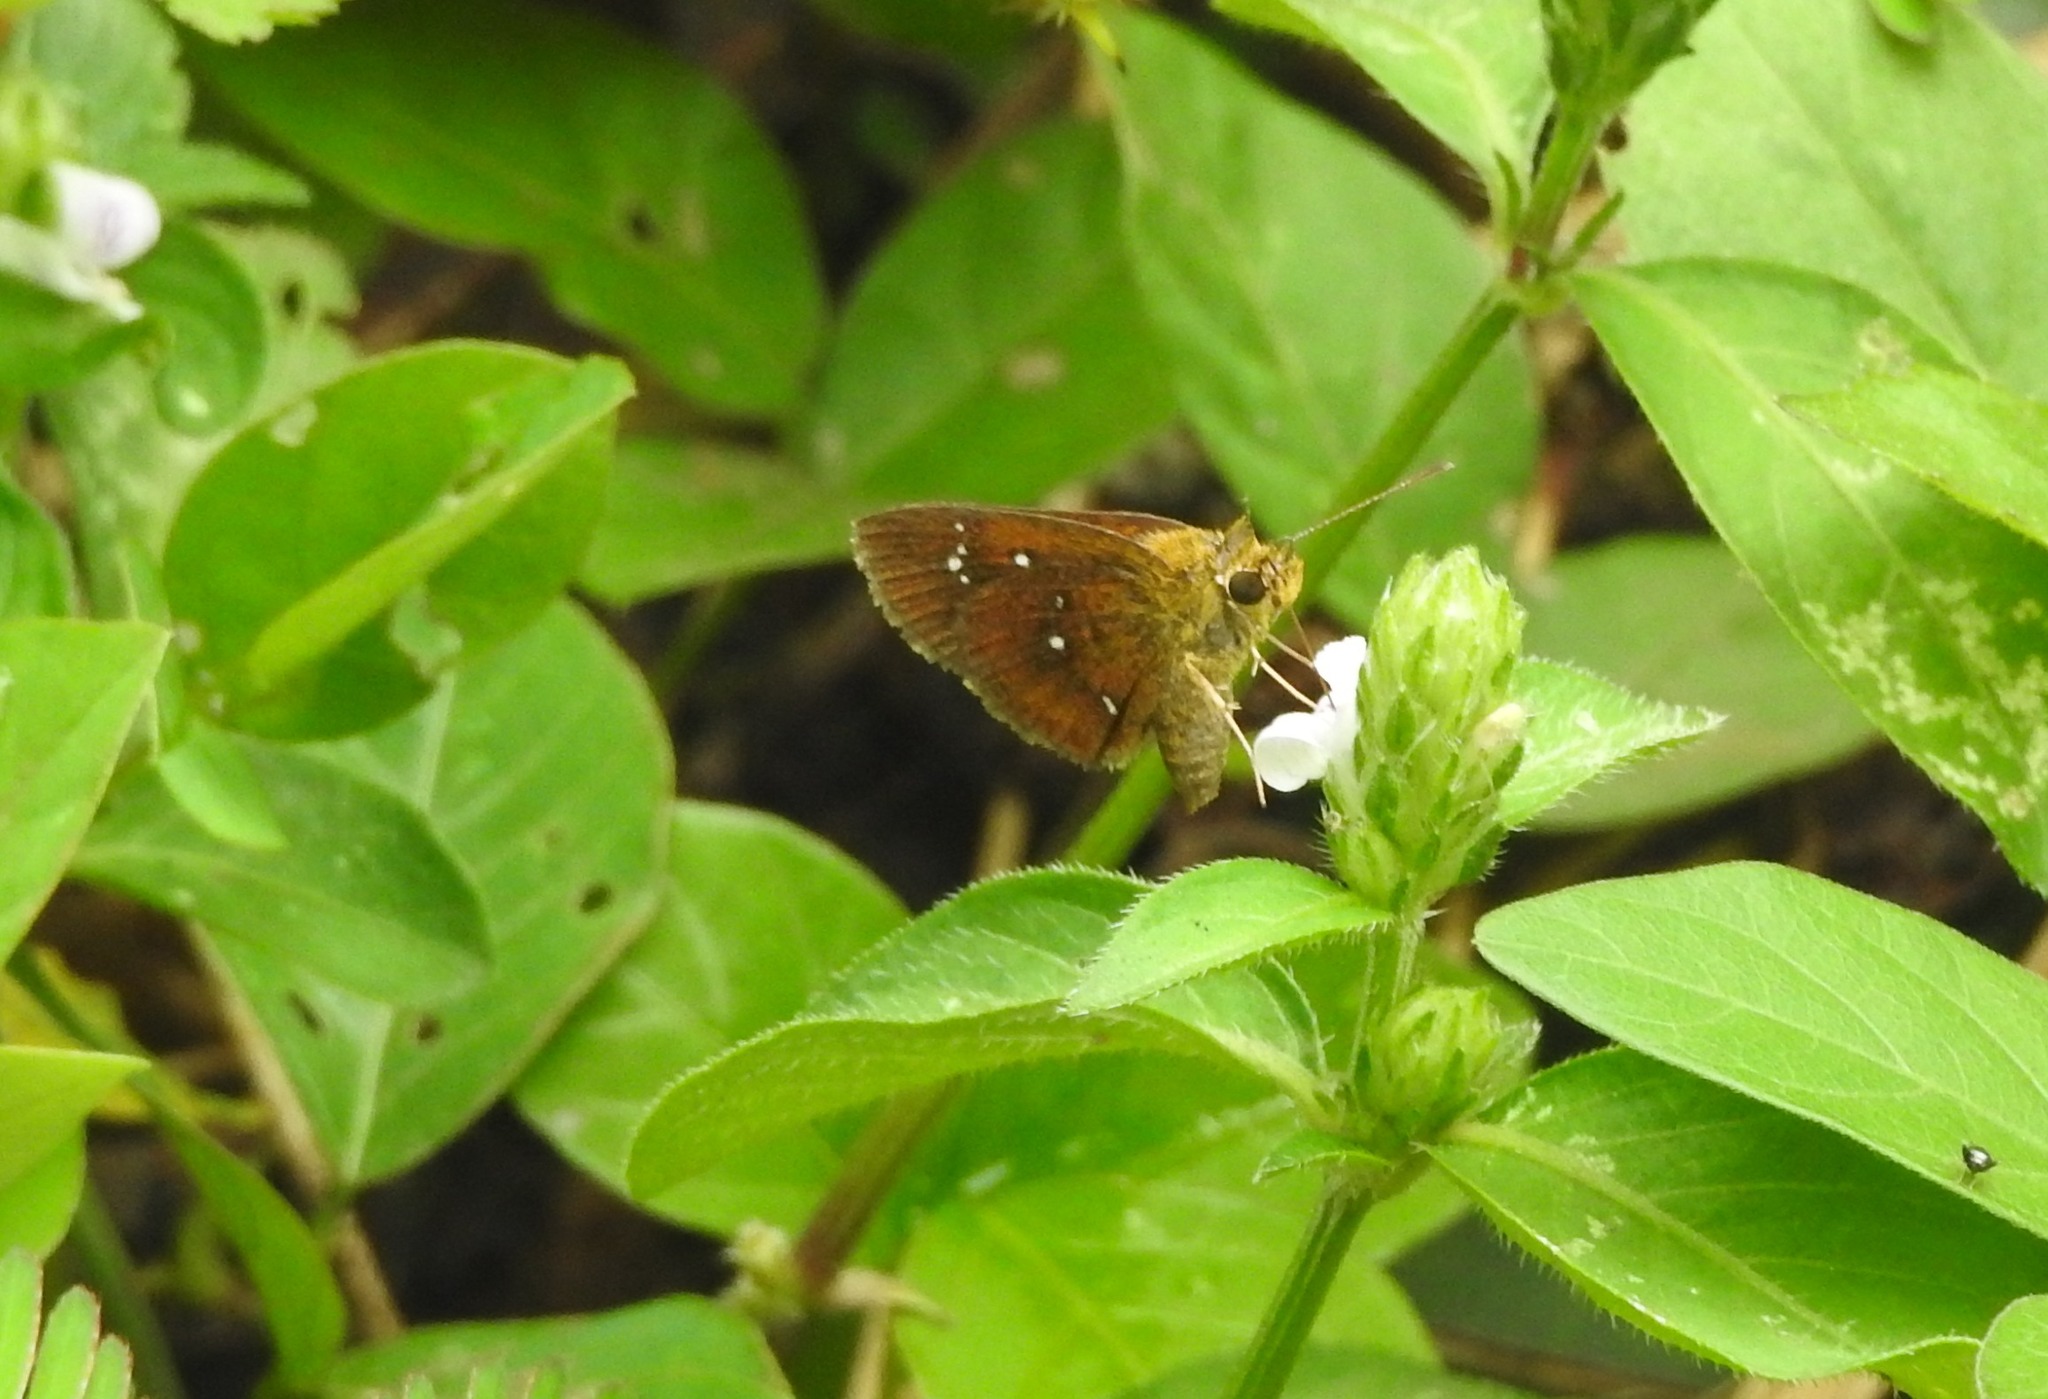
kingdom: Animalia
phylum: Arthropoda
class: Insecta
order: Lepidoptera
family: Hesperiidae
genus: Iambrix
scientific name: Iambrix salsala
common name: Chestnut bob
